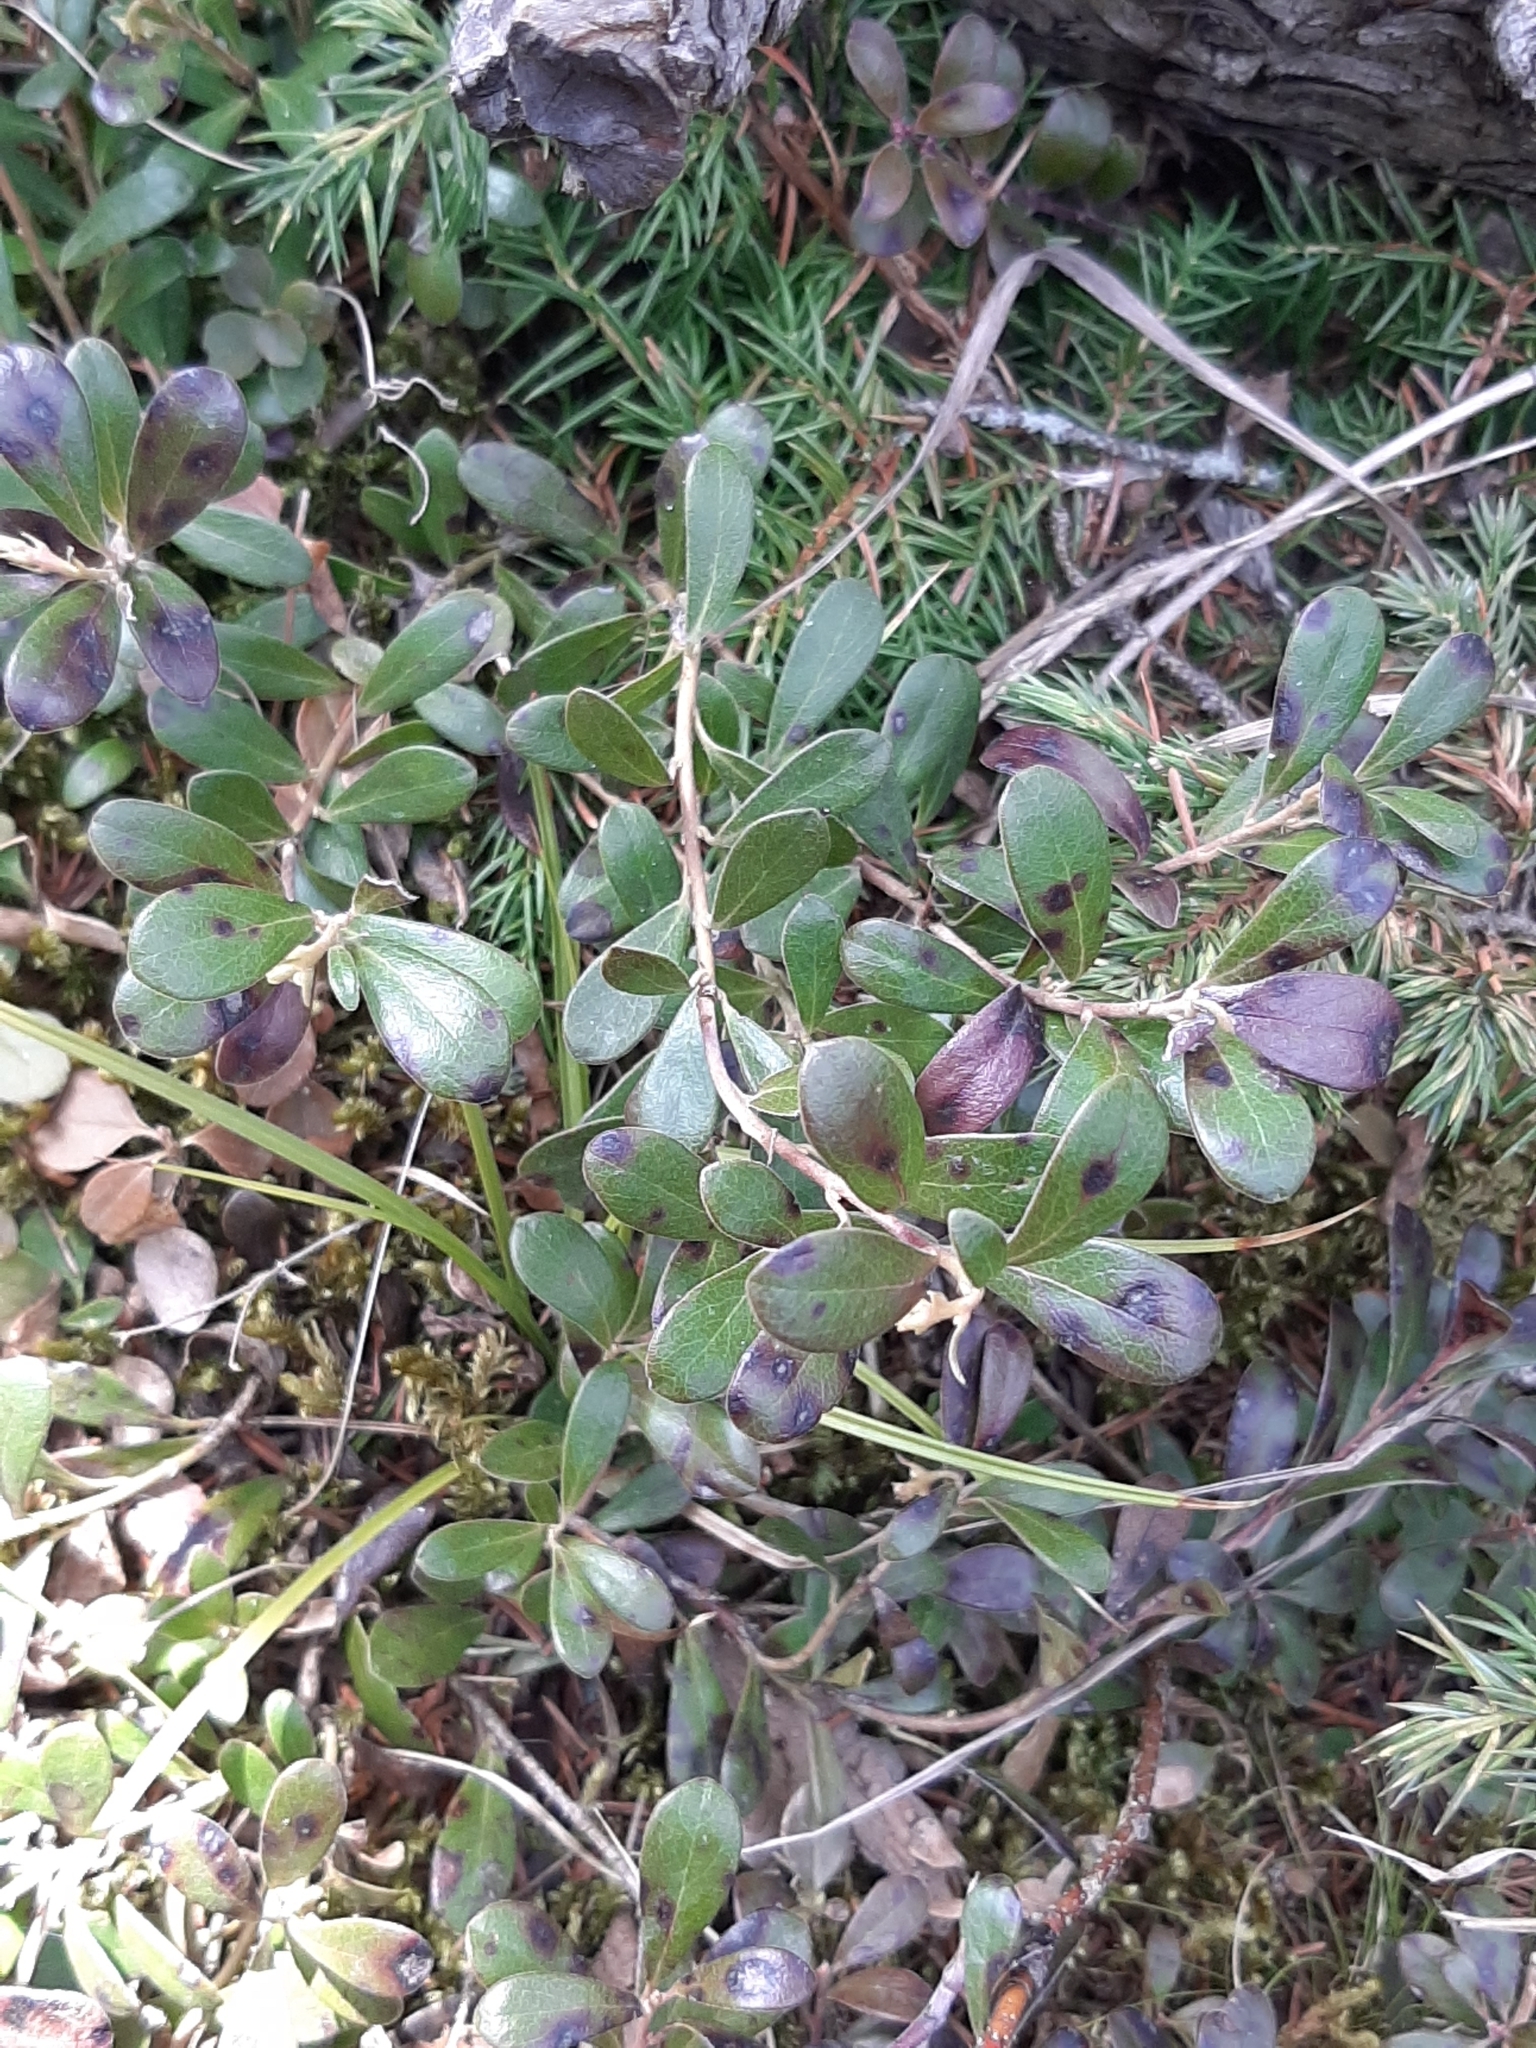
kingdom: Plantae
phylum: Tracheophyta
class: Magnoliopsida
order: Ericales
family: Ericaceae
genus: Arctostaphylos
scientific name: Arctostaphylos uva-ursi
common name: Bearberry
